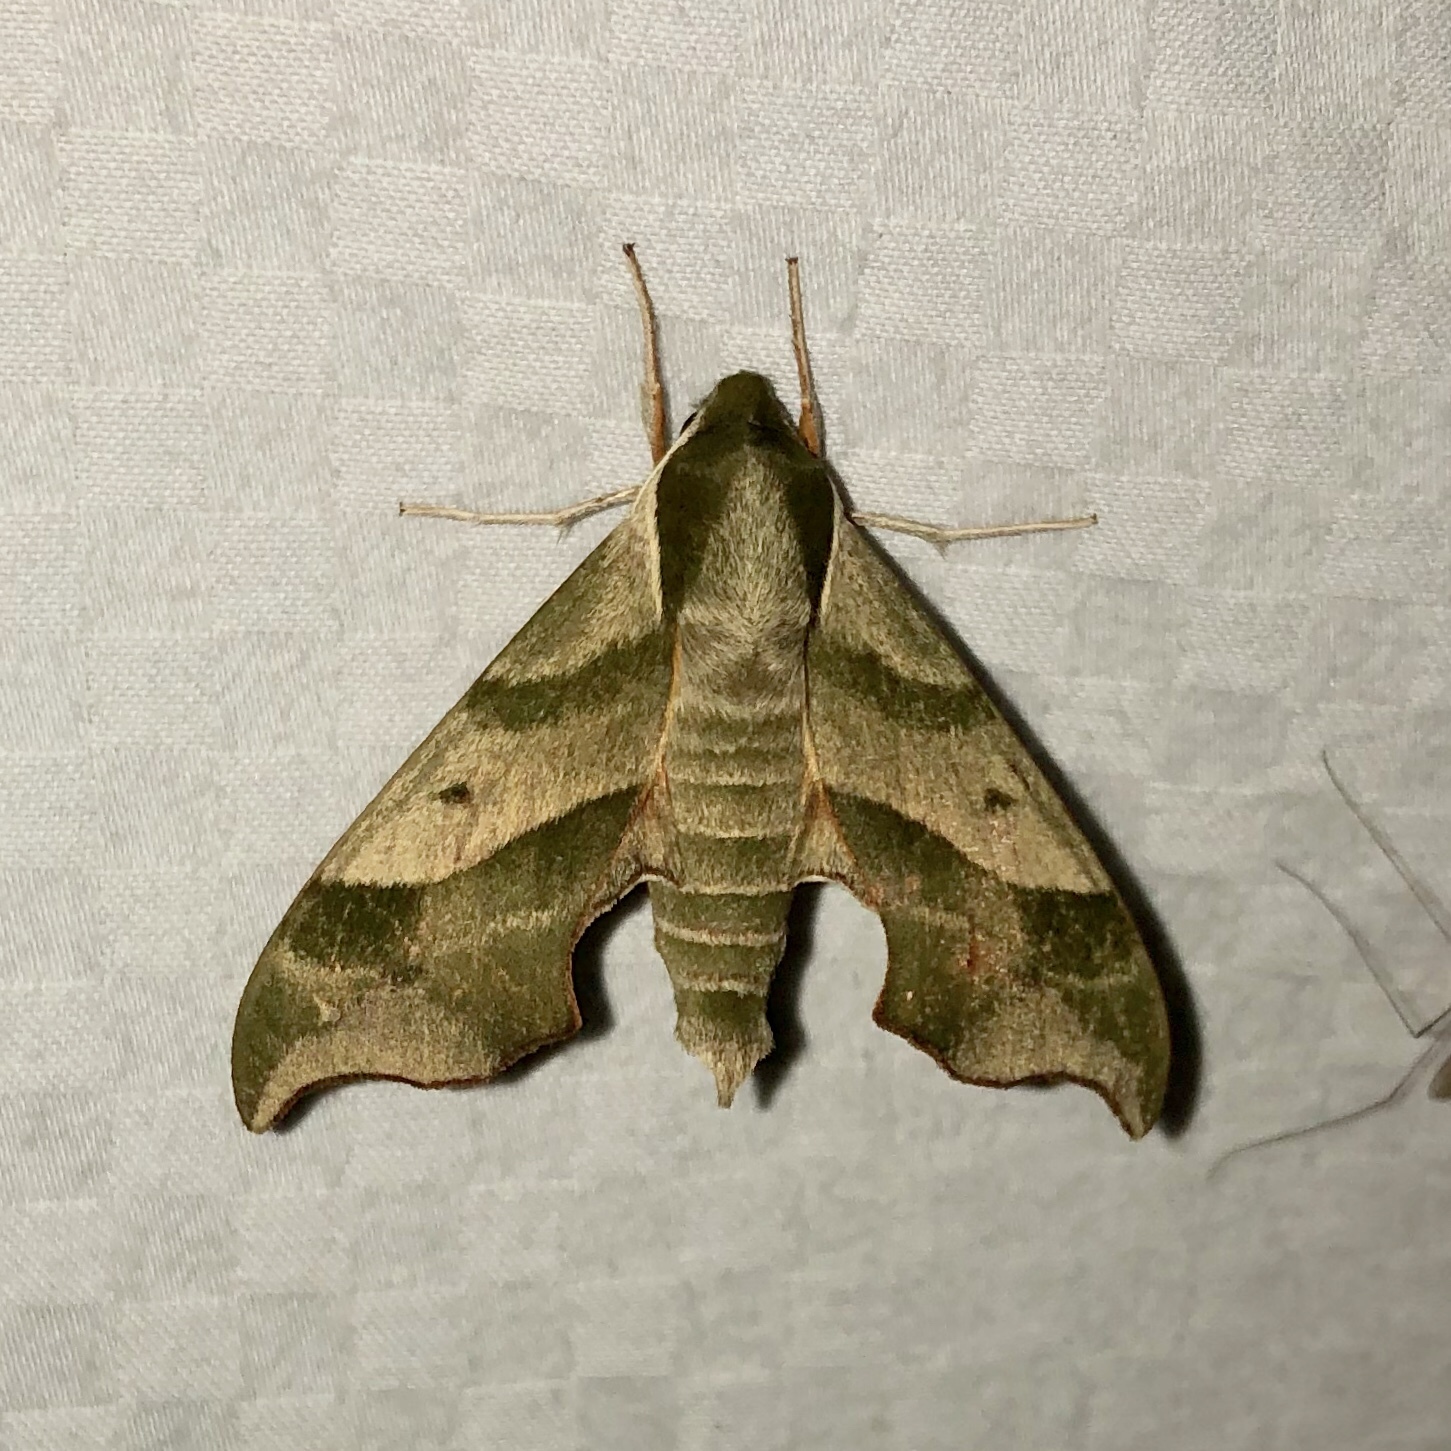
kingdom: Animalia
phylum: Arthropoda
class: Insecta
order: Lepidoptera
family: Sphingidae
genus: Darapsa
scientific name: Darapsa myron
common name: Hog sphinx
